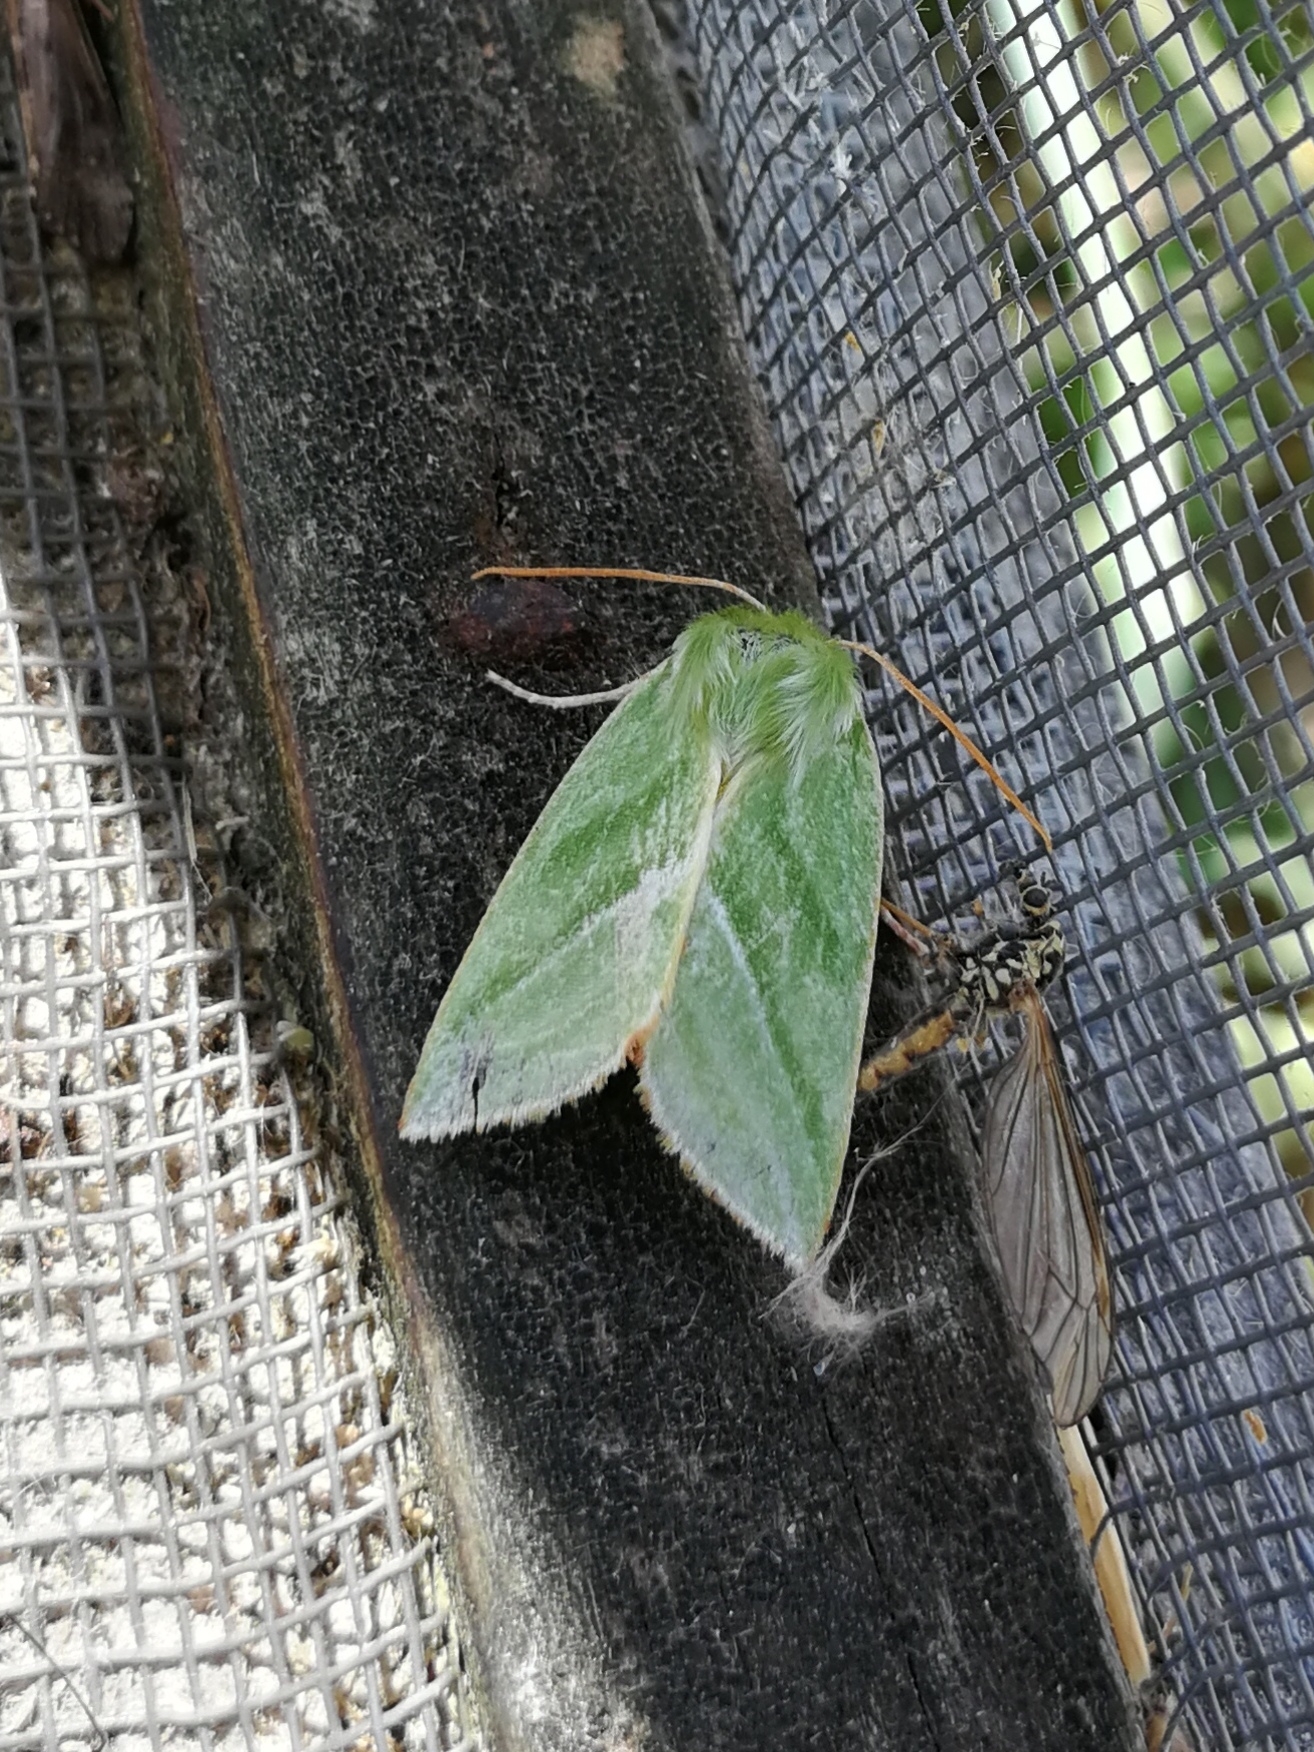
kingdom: Animalia
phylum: Arthropoda
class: Insecta
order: Lepidoptera
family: Nolidae
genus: Pseudoips
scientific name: Pseudoips prasinana
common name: Green silver-lines
